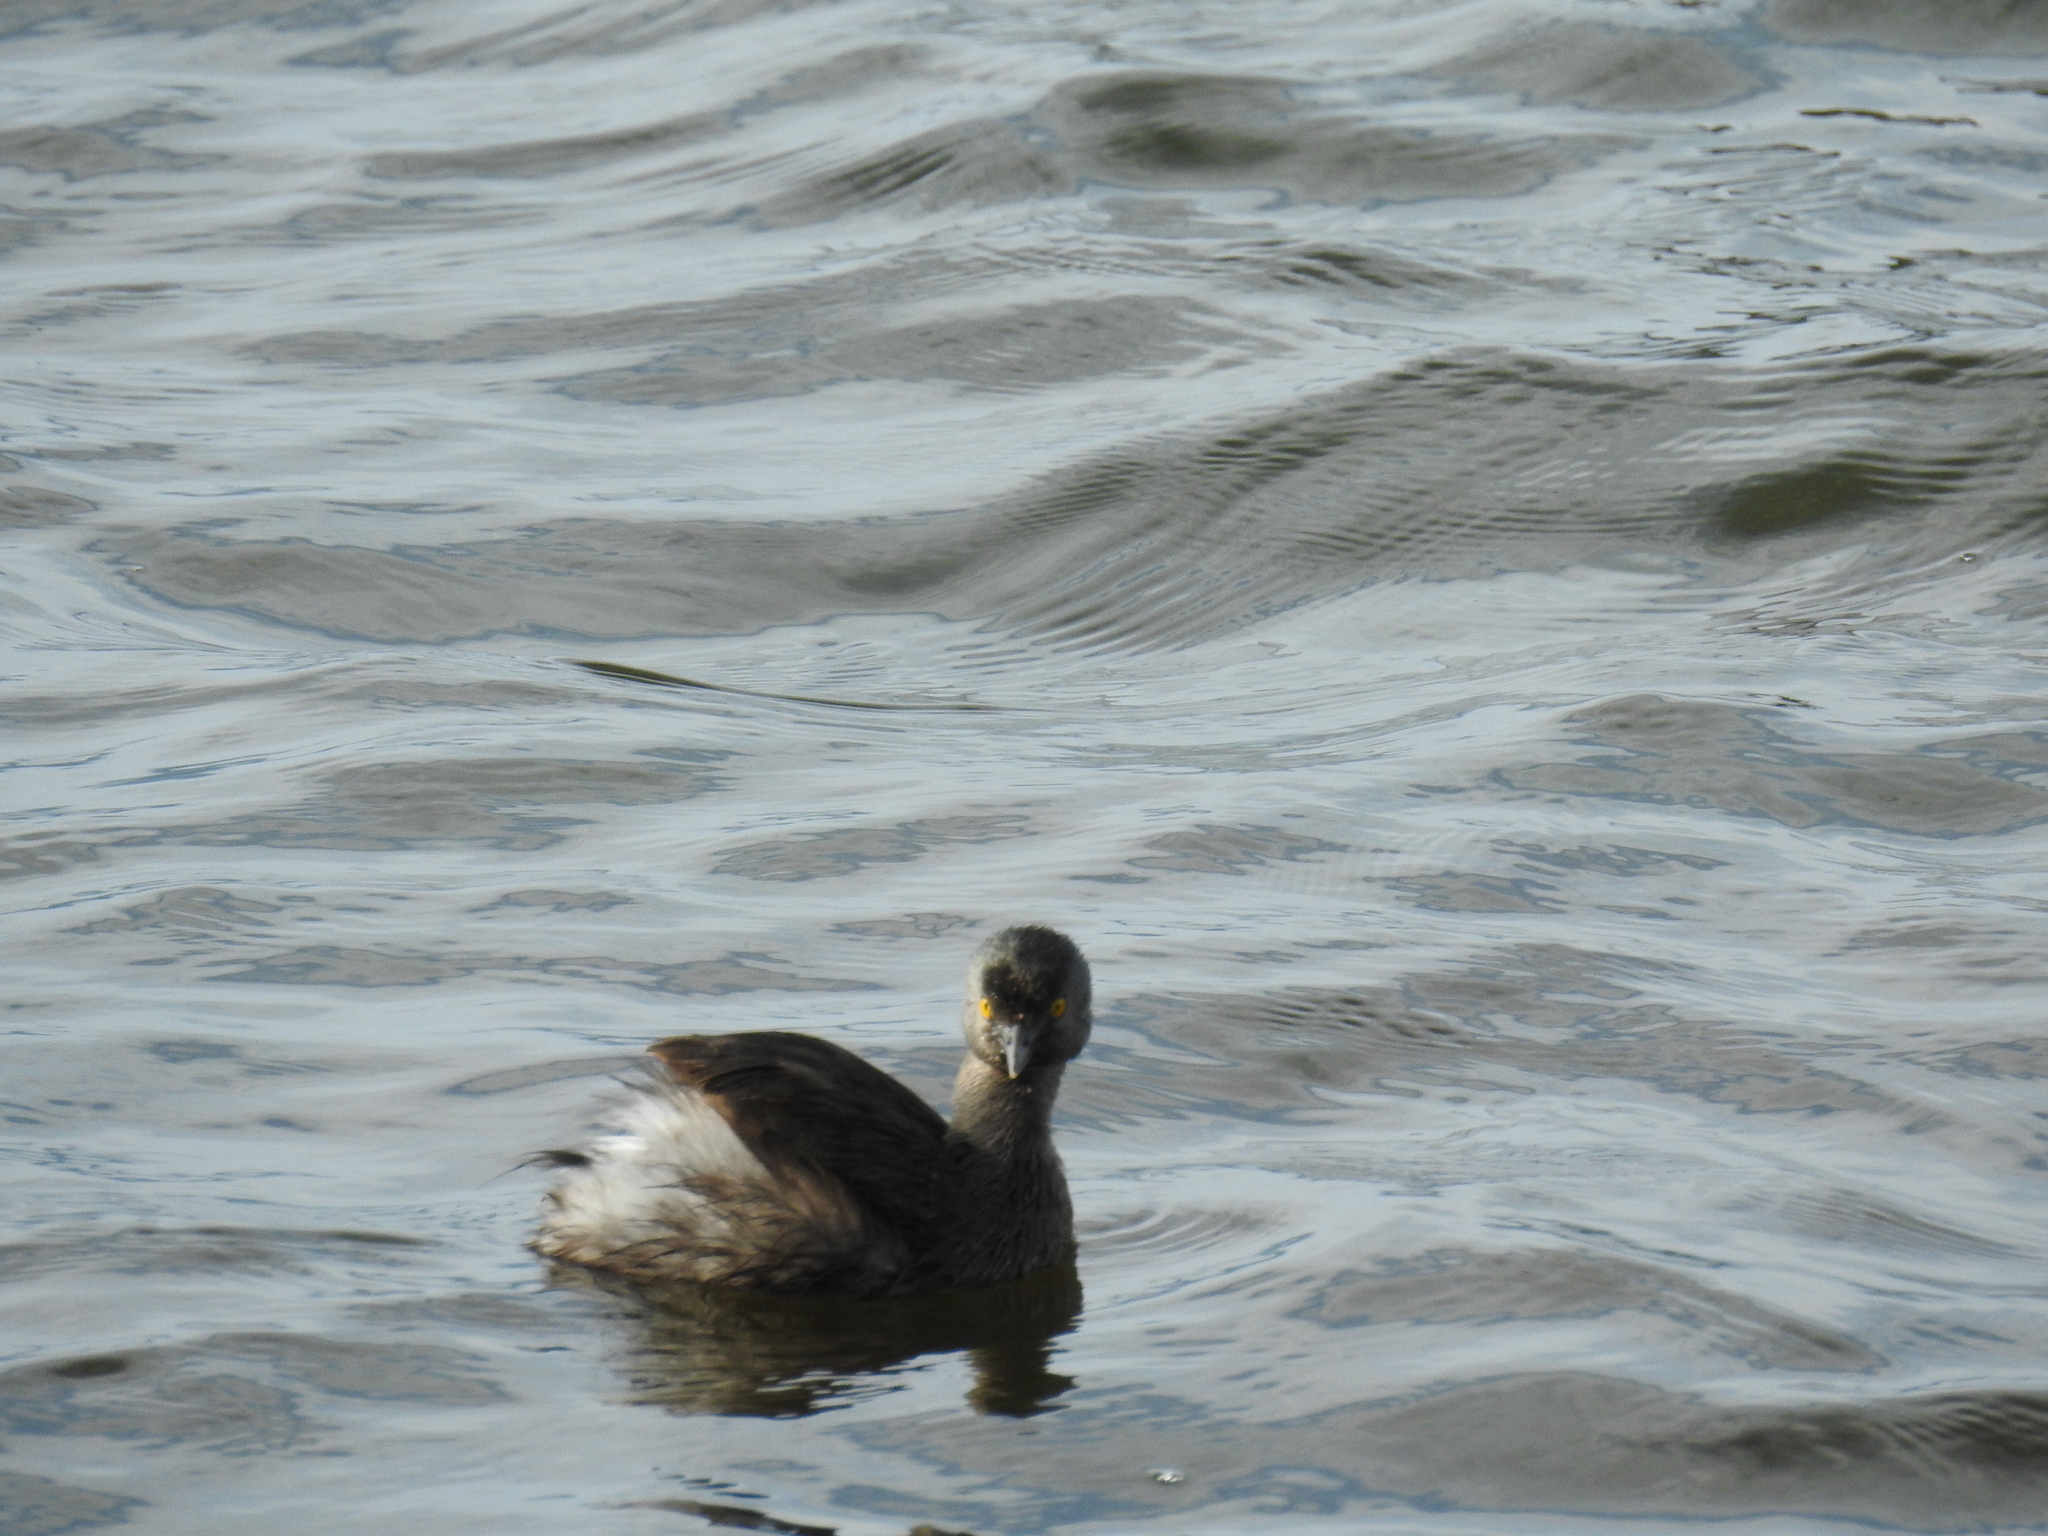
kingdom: Animalia
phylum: Chordata
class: Aves
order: Podicipediformes
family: Podicipedidae
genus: Tachybaptus
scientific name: Tachybaptus dominicus
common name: Least grebe
